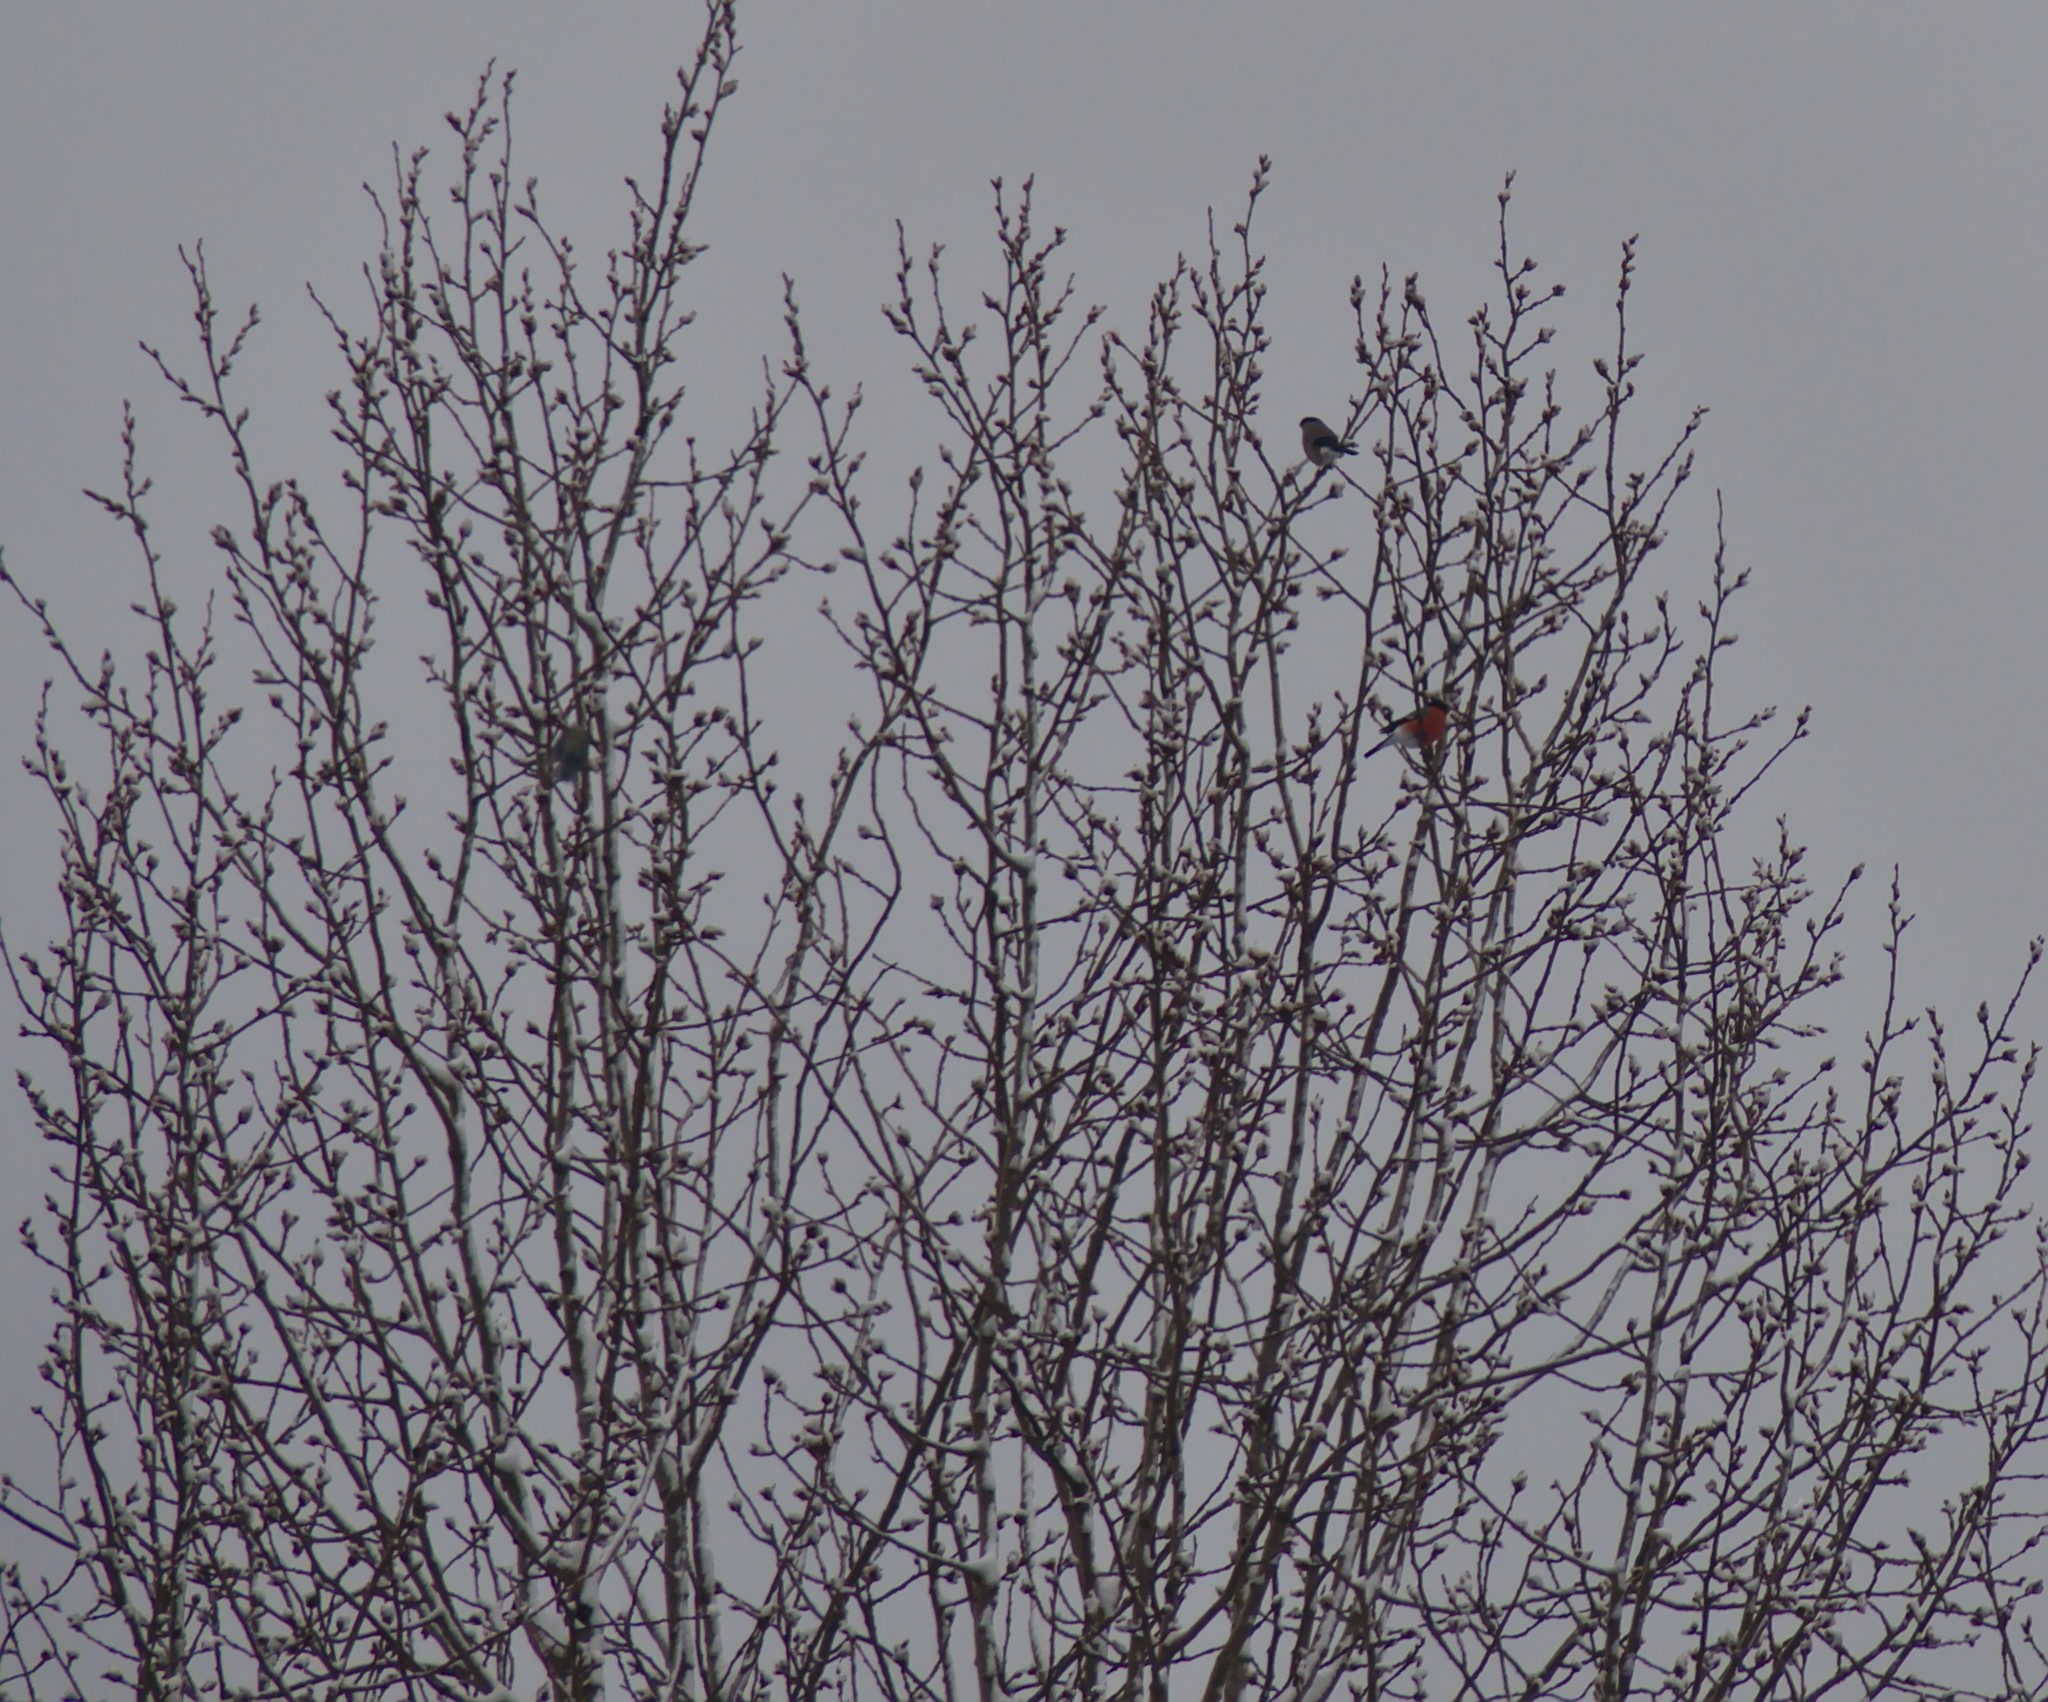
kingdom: Animalia
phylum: Chordata
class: Aves
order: Passeriformes
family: Fringillidae
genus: Pyrrhula
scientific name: Pyrrhula pyrrhula
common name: Eurasian bullfinch
